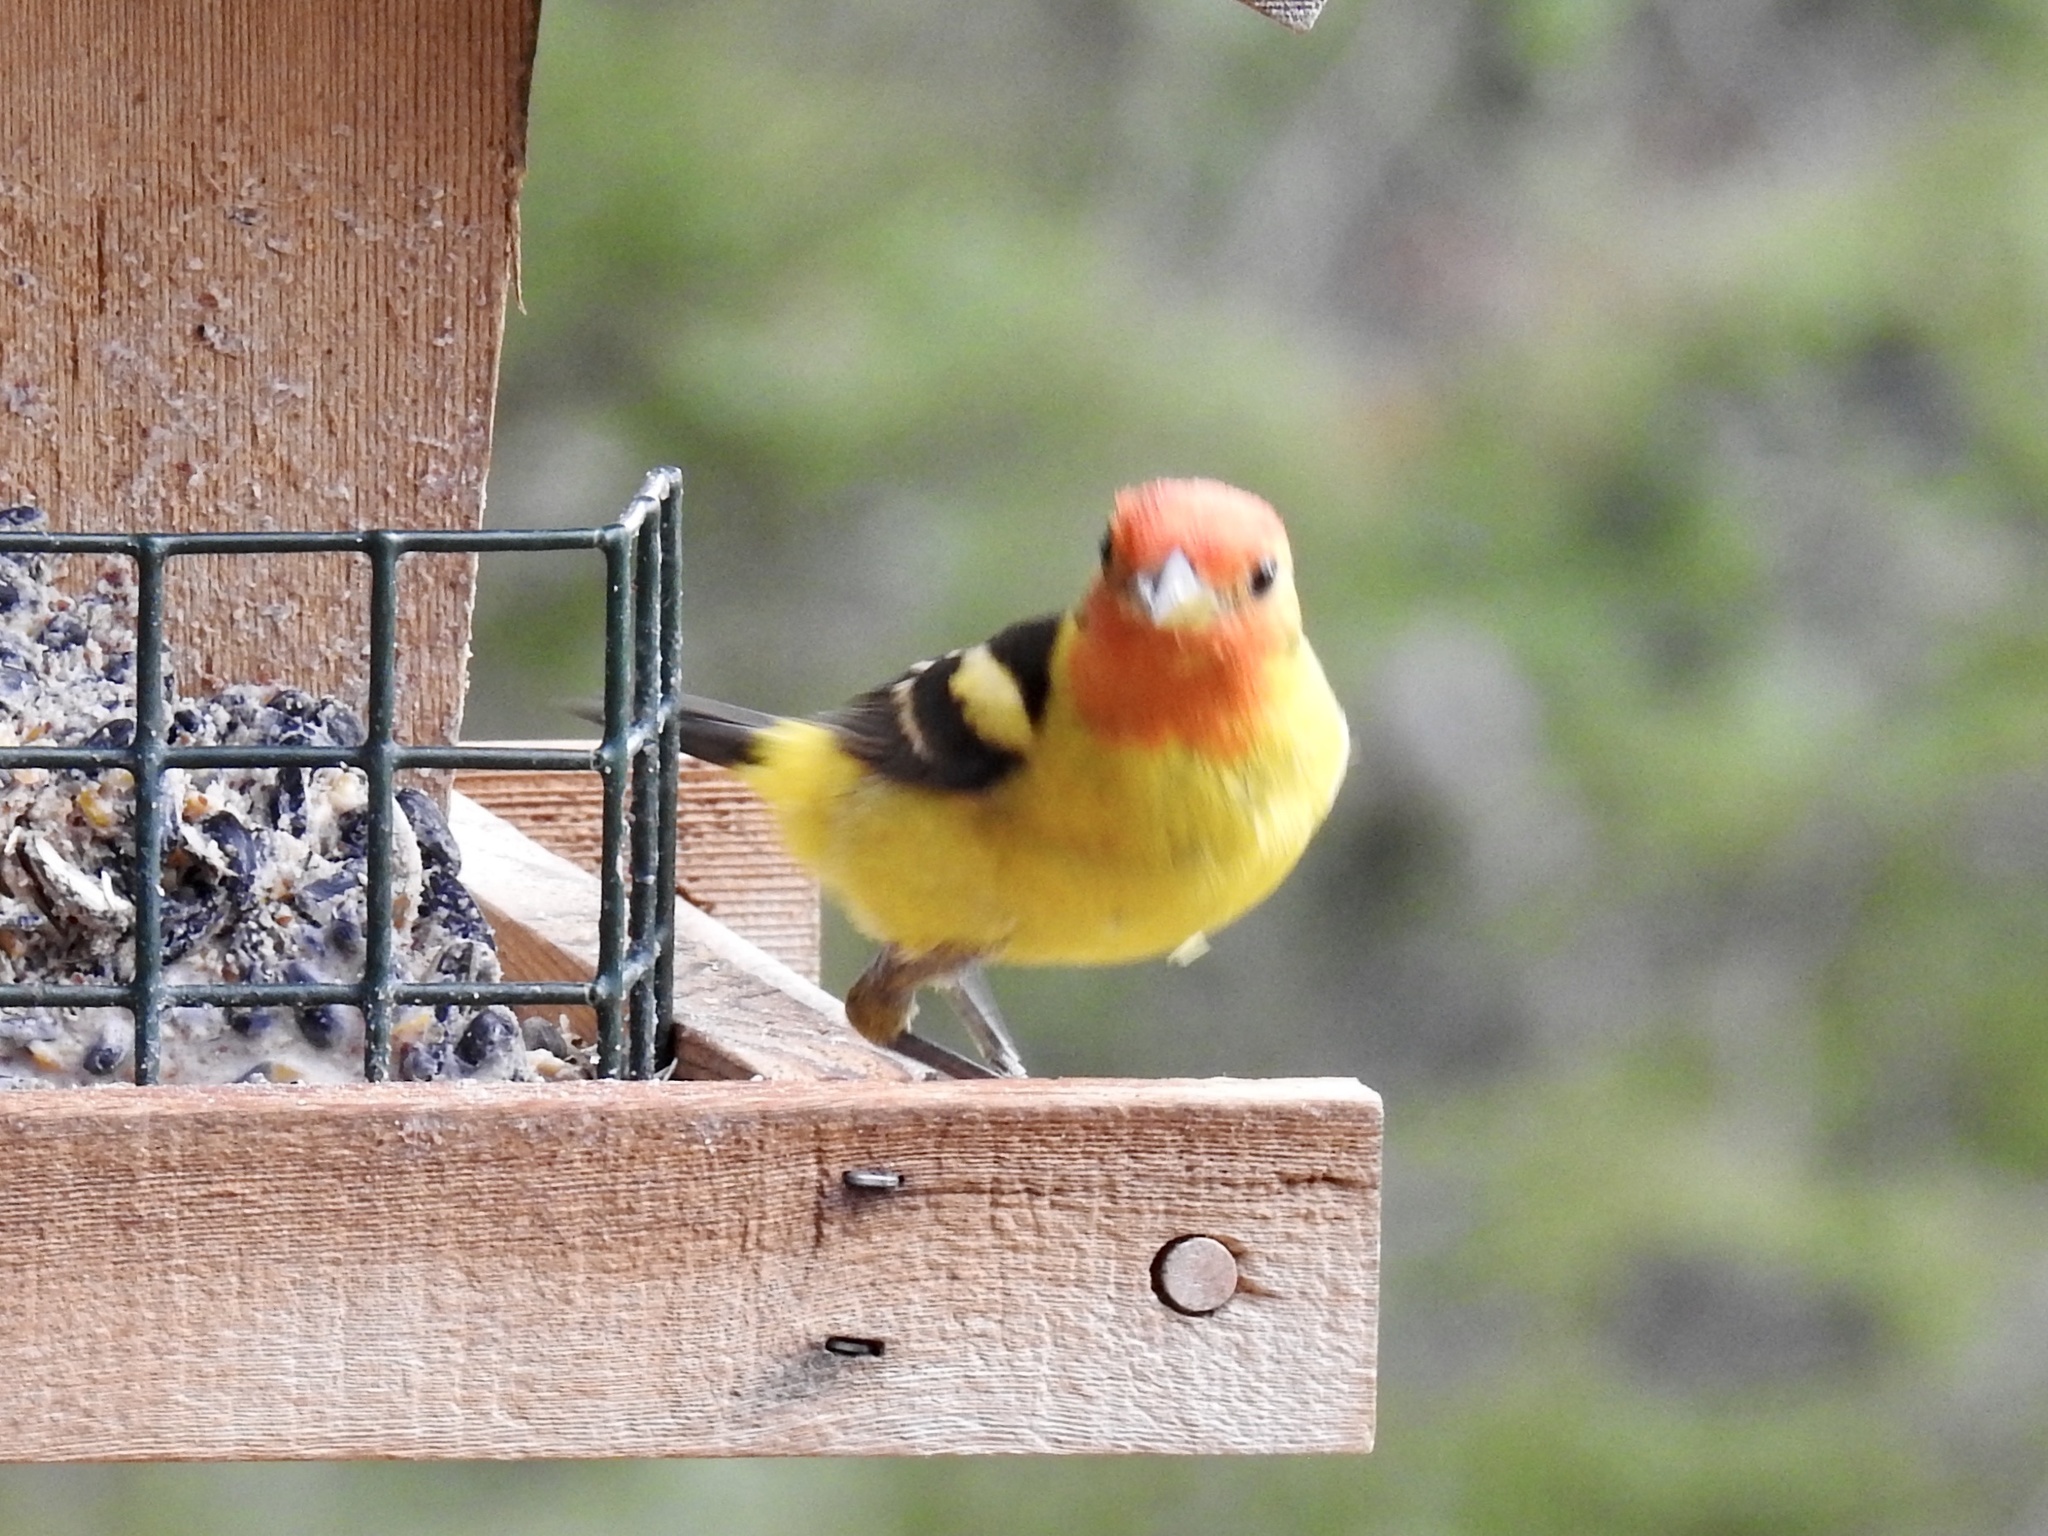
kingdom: Animalia
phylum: Chordata
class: Aves
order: Passeriformes
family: Cardinalidae
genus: Piranga
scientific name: Piranga ludoviciana
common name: Western tanager
